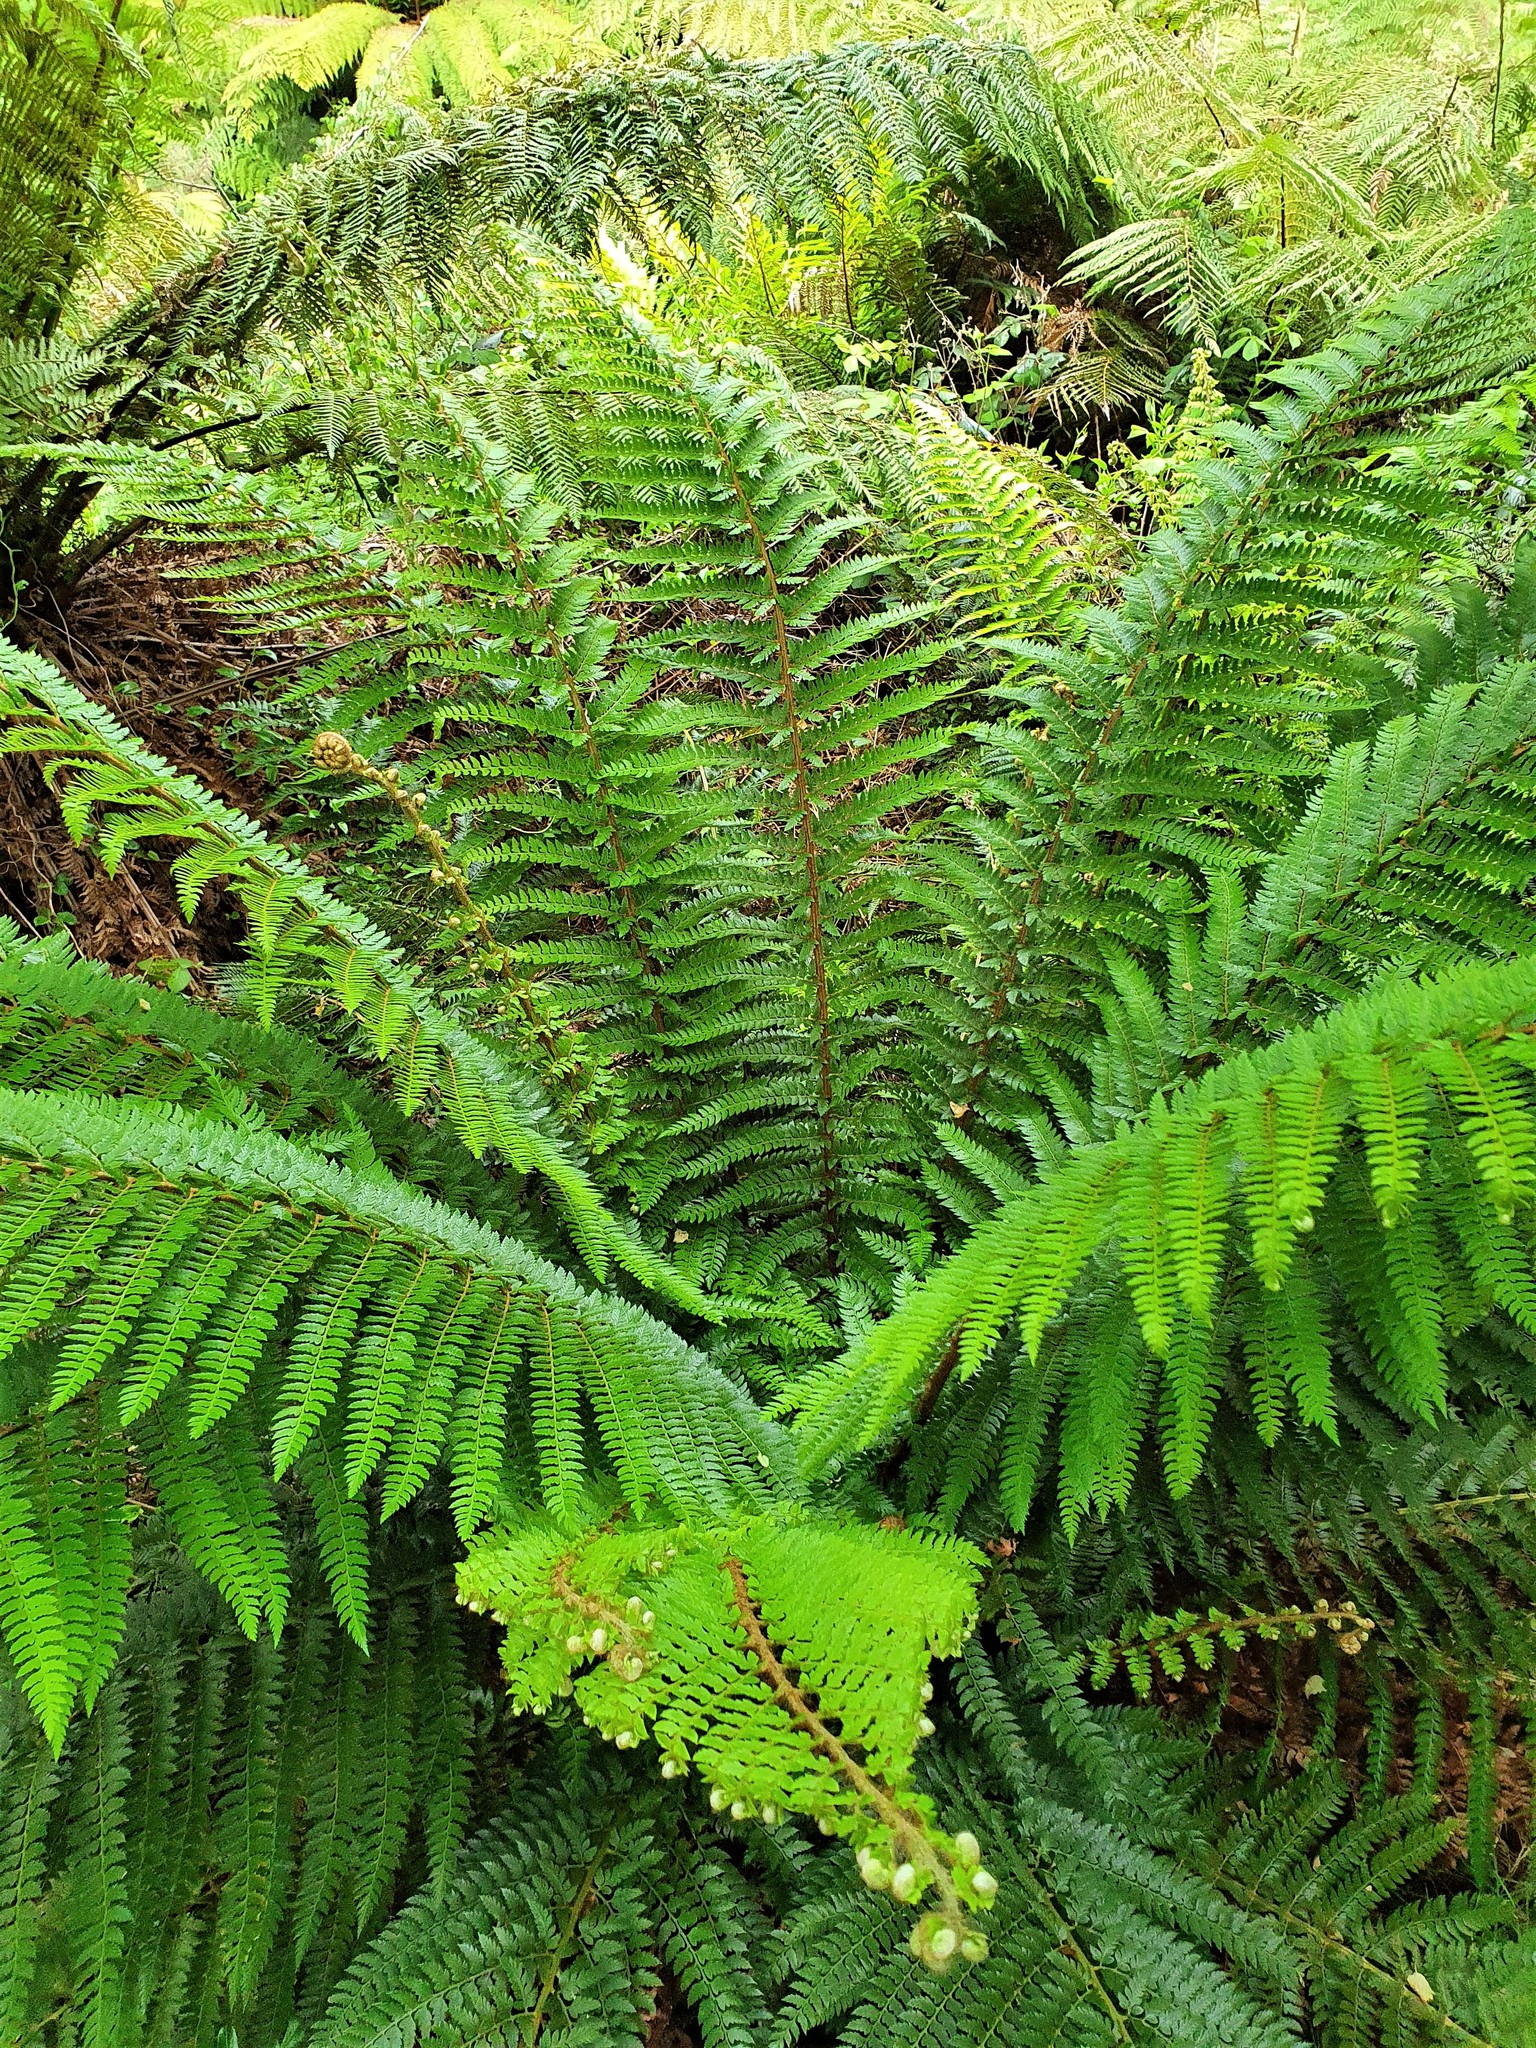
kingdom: Plantae
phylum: Tracheophyta
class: Polypodiopsida
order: Polypodiales
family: Dryopteridaceae
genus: Polystichum
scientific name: Polystichum vestitum
